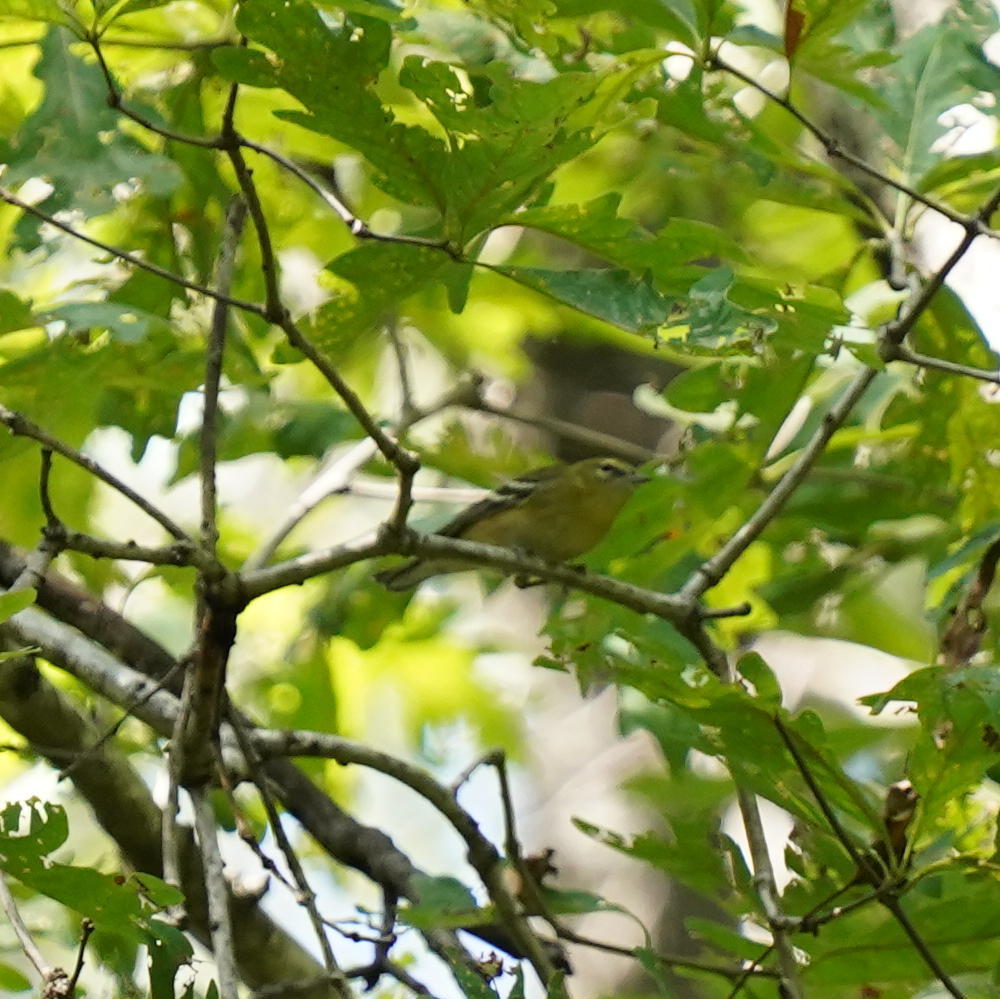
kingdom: Animalia
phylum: Chordata
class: Aves
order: Passeriformes
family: Parulidae
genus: Leiothlypis
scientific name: Leiothlypis peregrina
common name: Tennessee warbler
